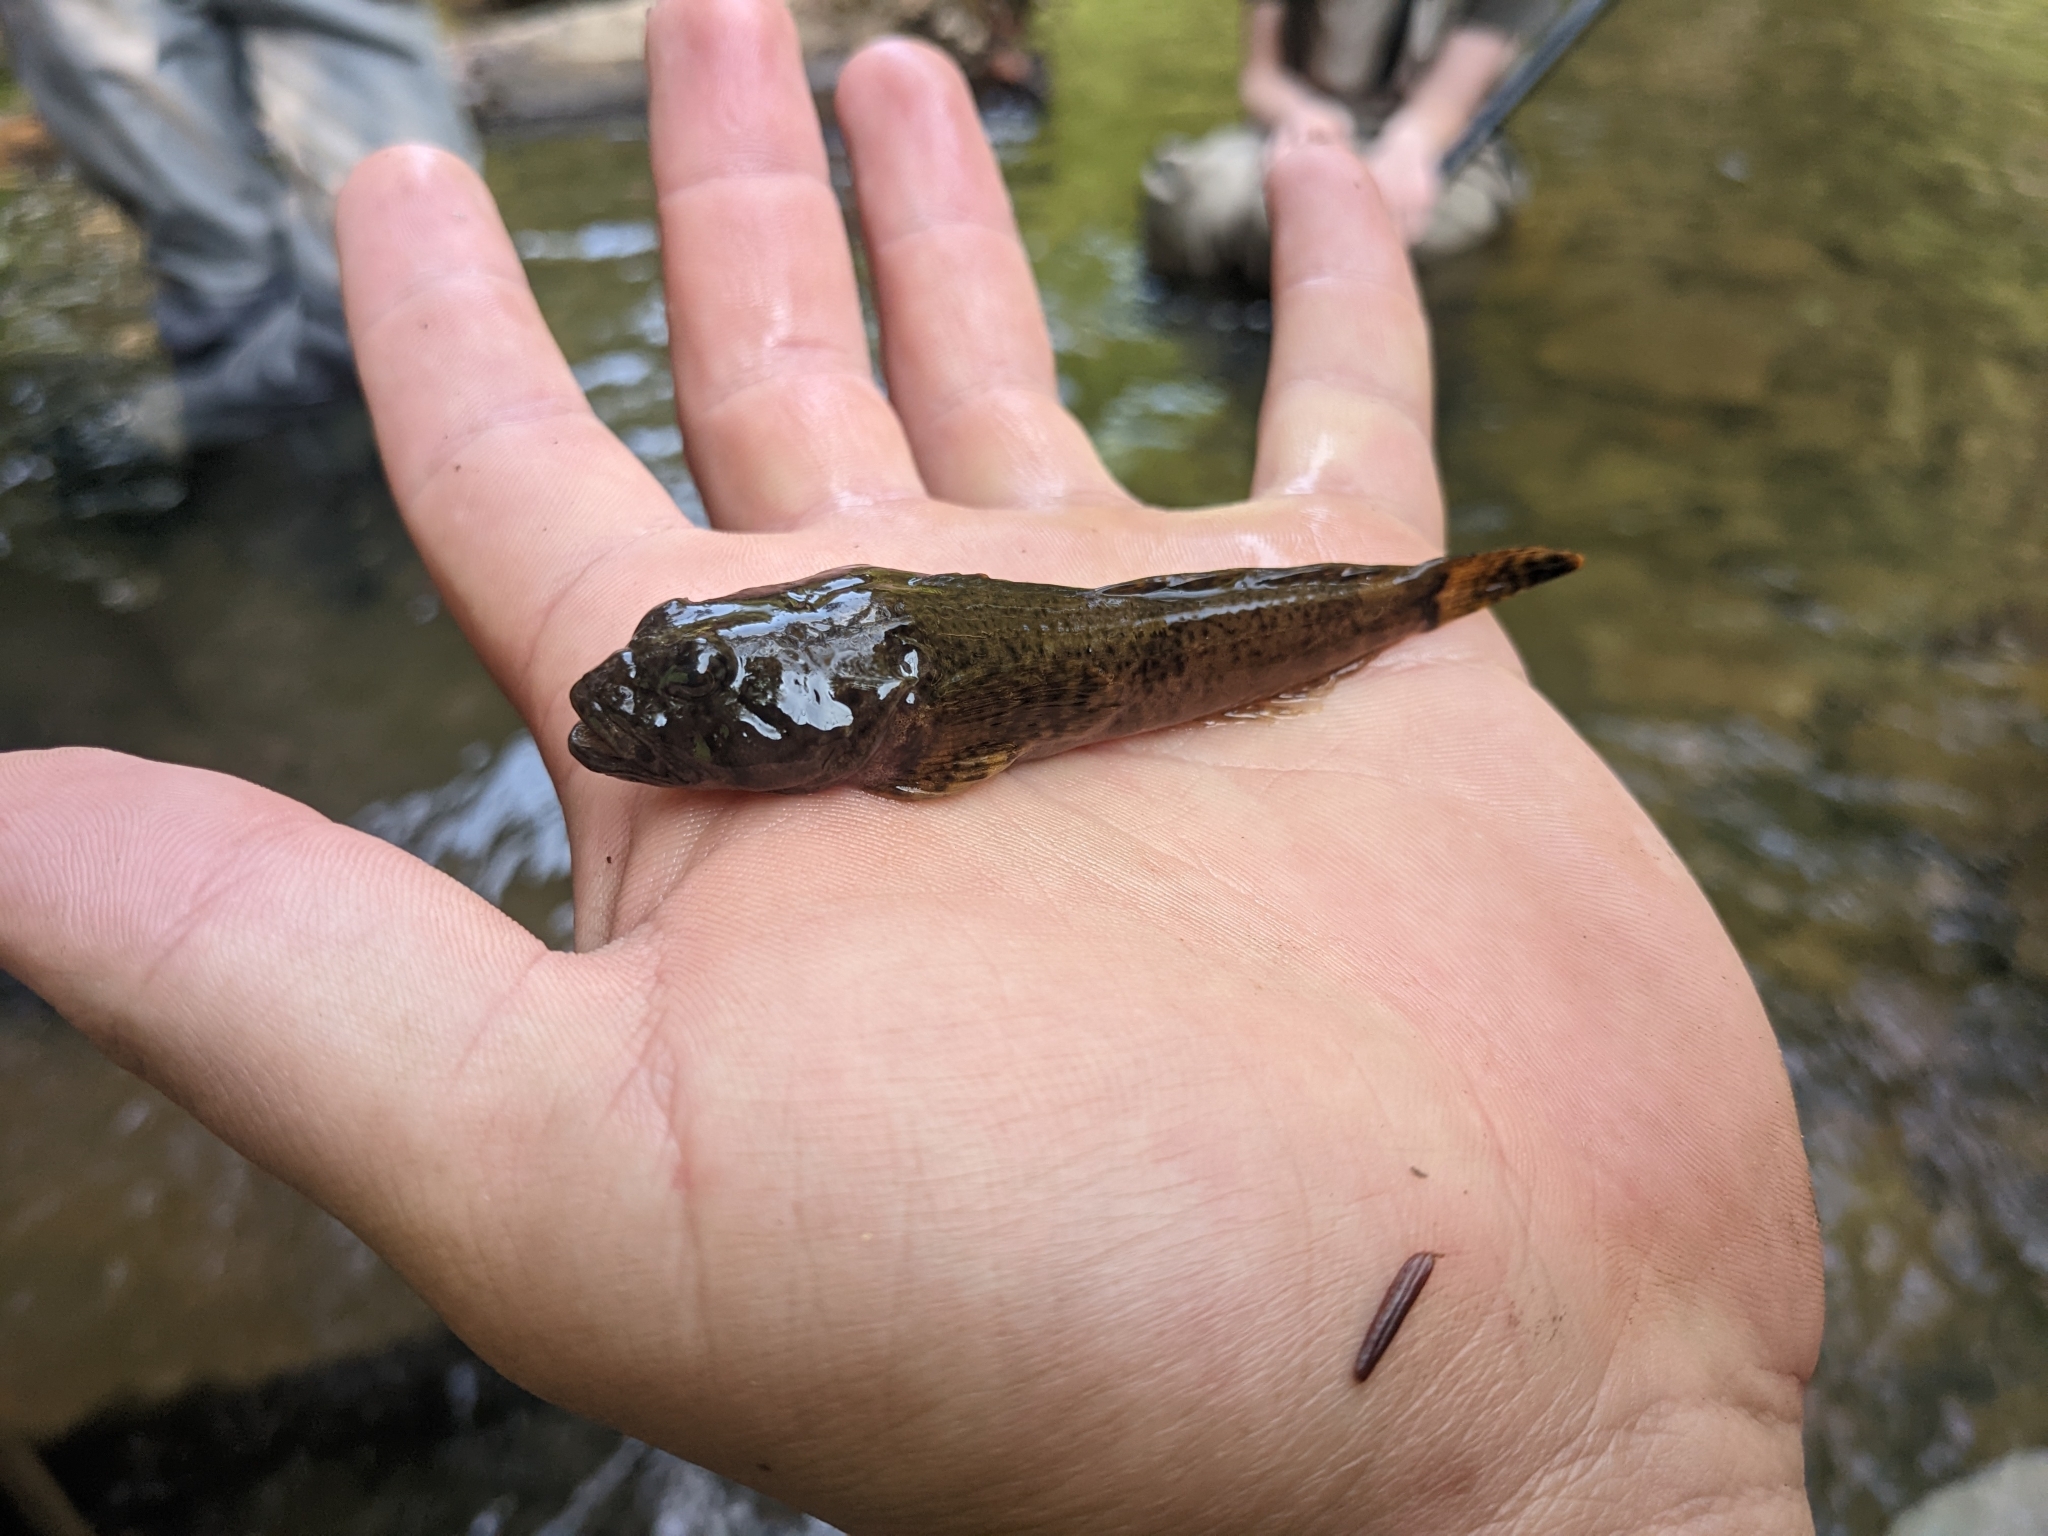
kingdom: Animalia
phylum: Chordata
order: Scorpaeniformes
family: Cottidae
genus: Cottus
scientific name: Cottus bairdii
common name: Mottled sculpin
